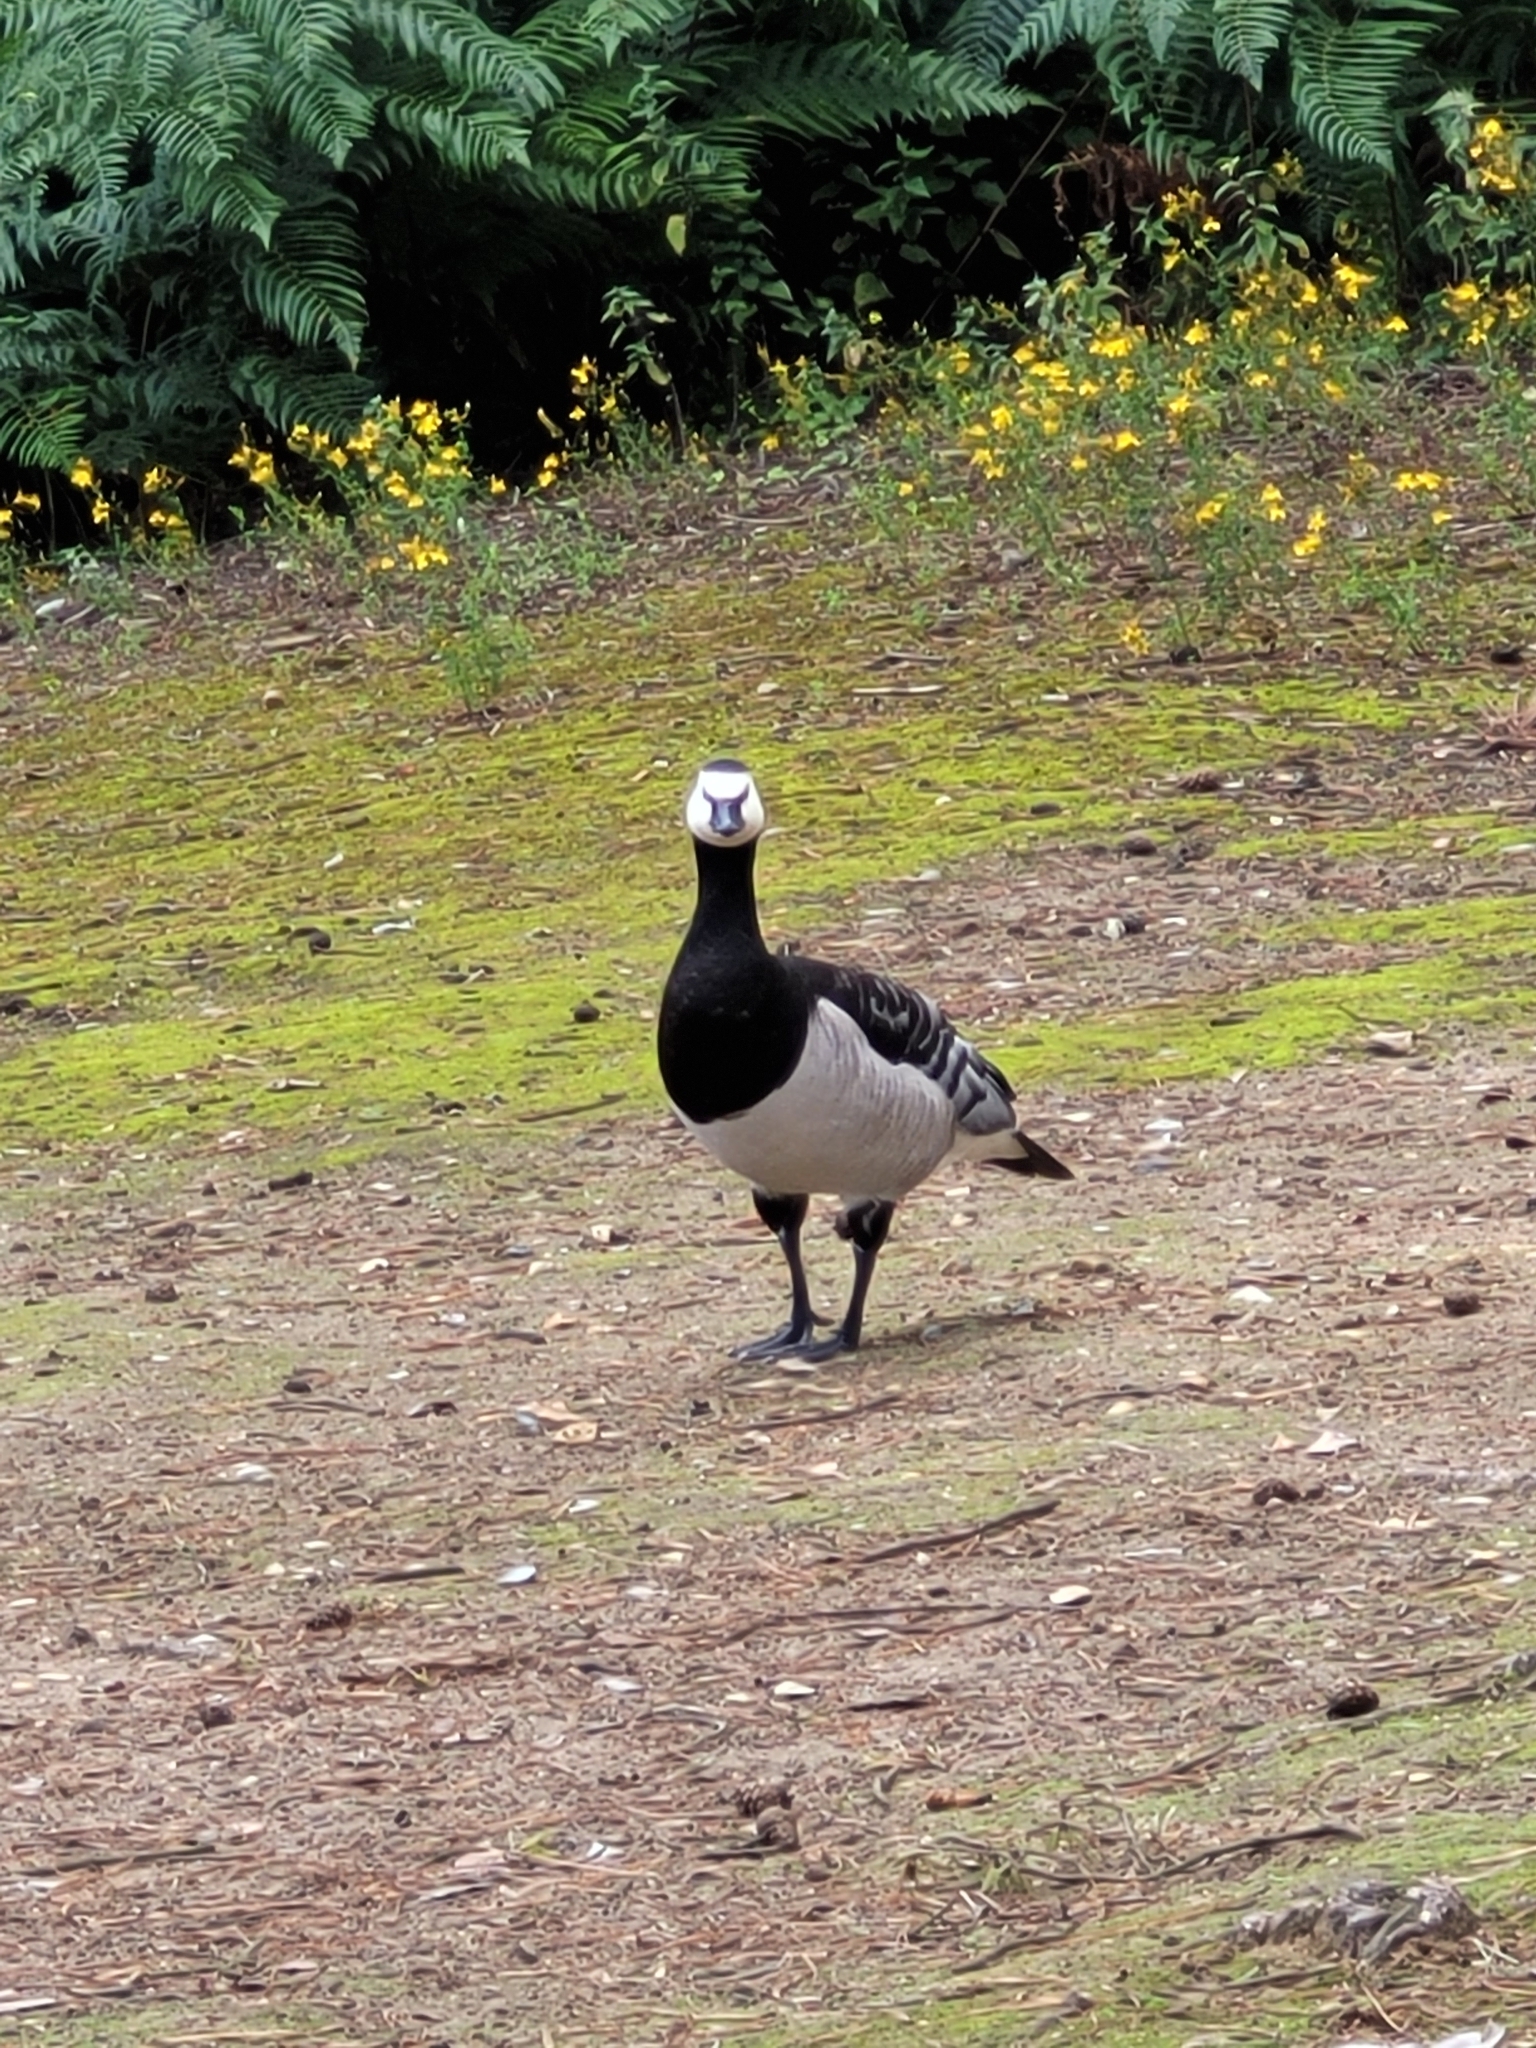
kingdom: Animalia
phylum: Chordata
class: Aves
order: Anseriformes
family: Anatidae
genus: Branta
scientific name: Branta leucopsis
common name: Barnacle goose
